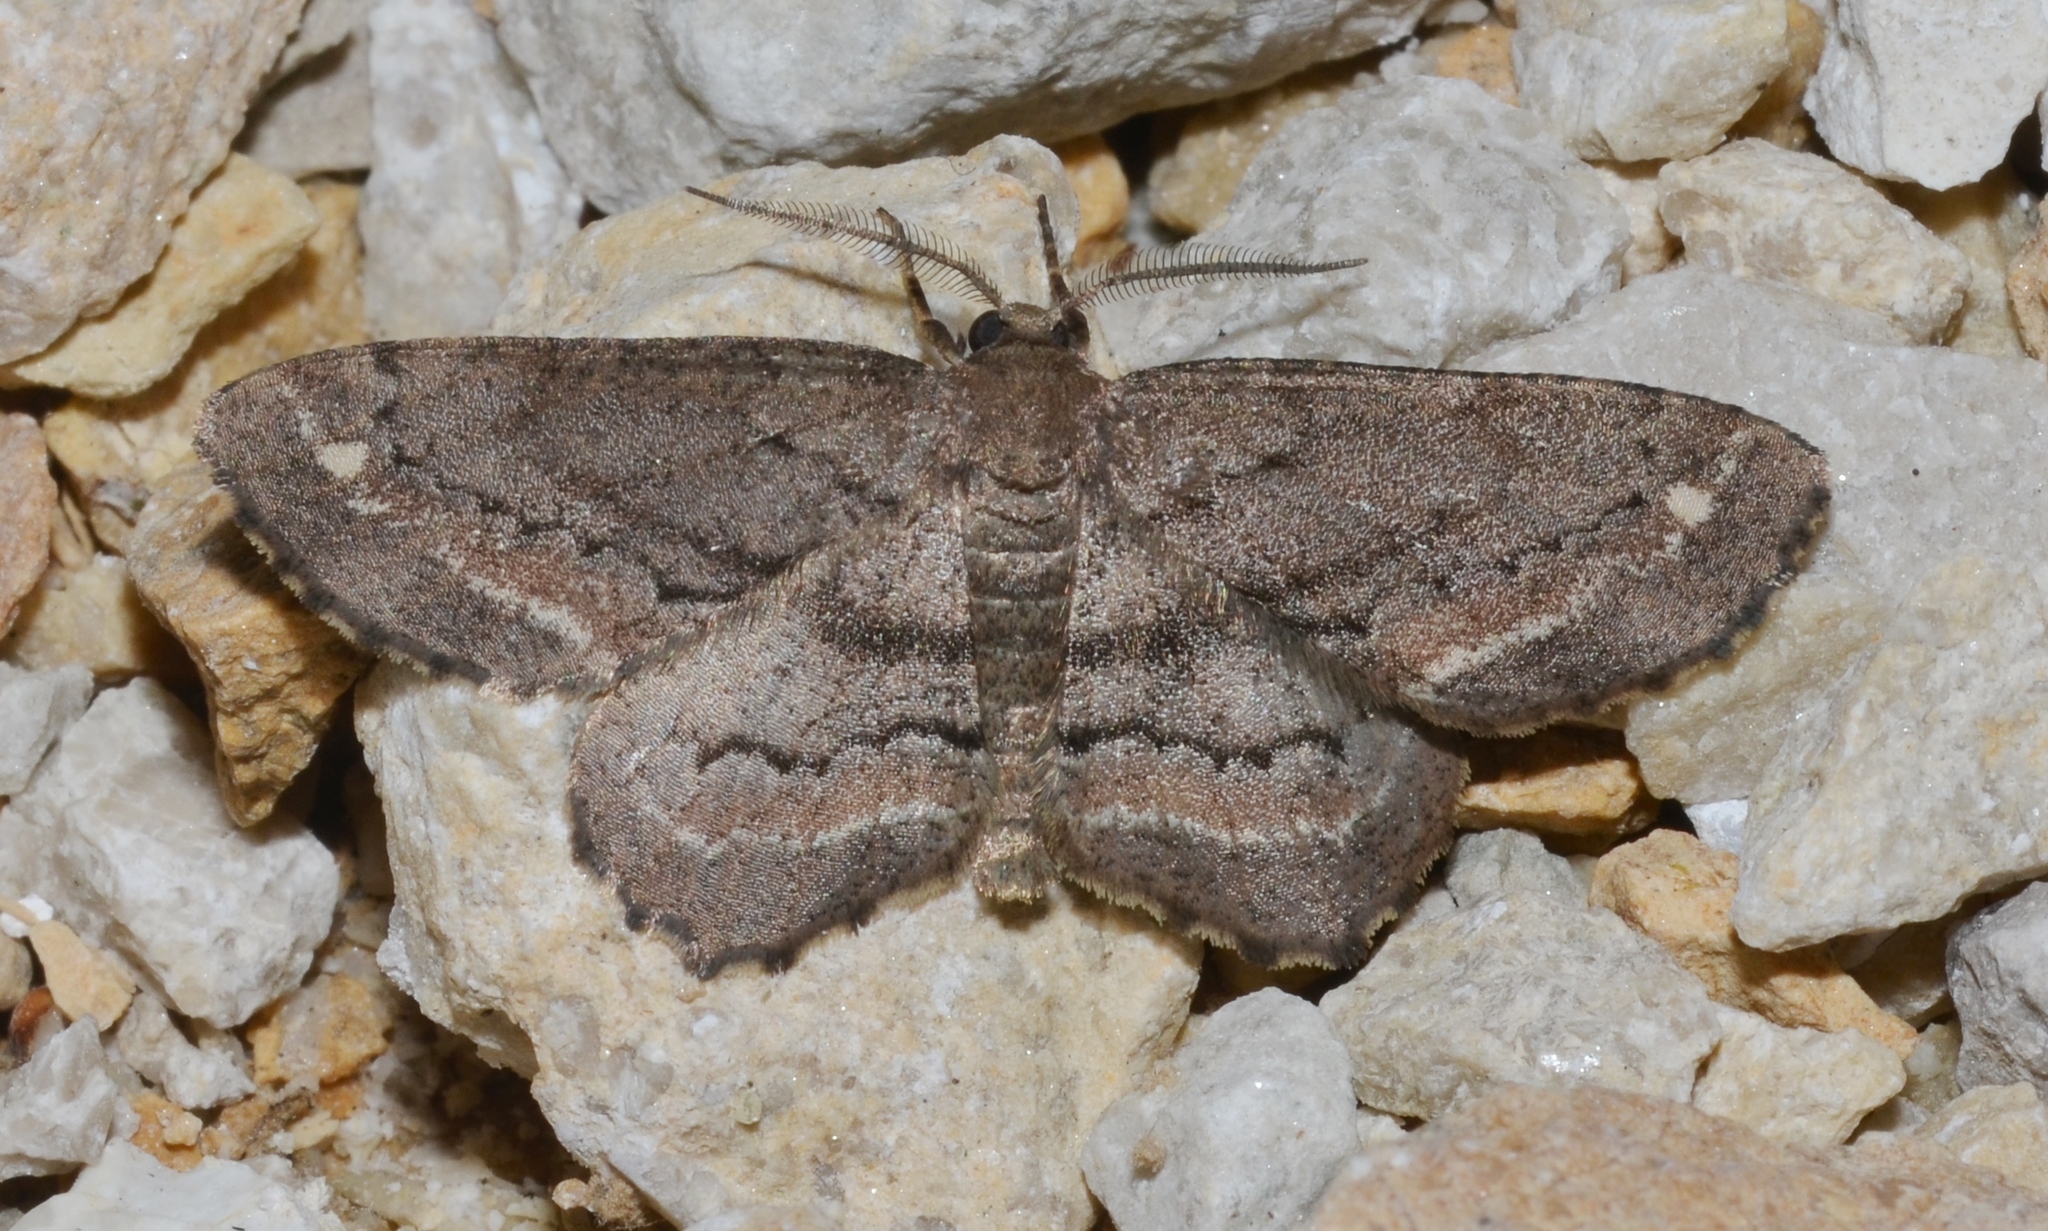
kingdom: Animalia
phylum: Arthropoda
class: Insecta
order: Lepidoptera
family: Geometridae
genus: Hypagyrtis
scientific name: Hypagyrtis brendae
